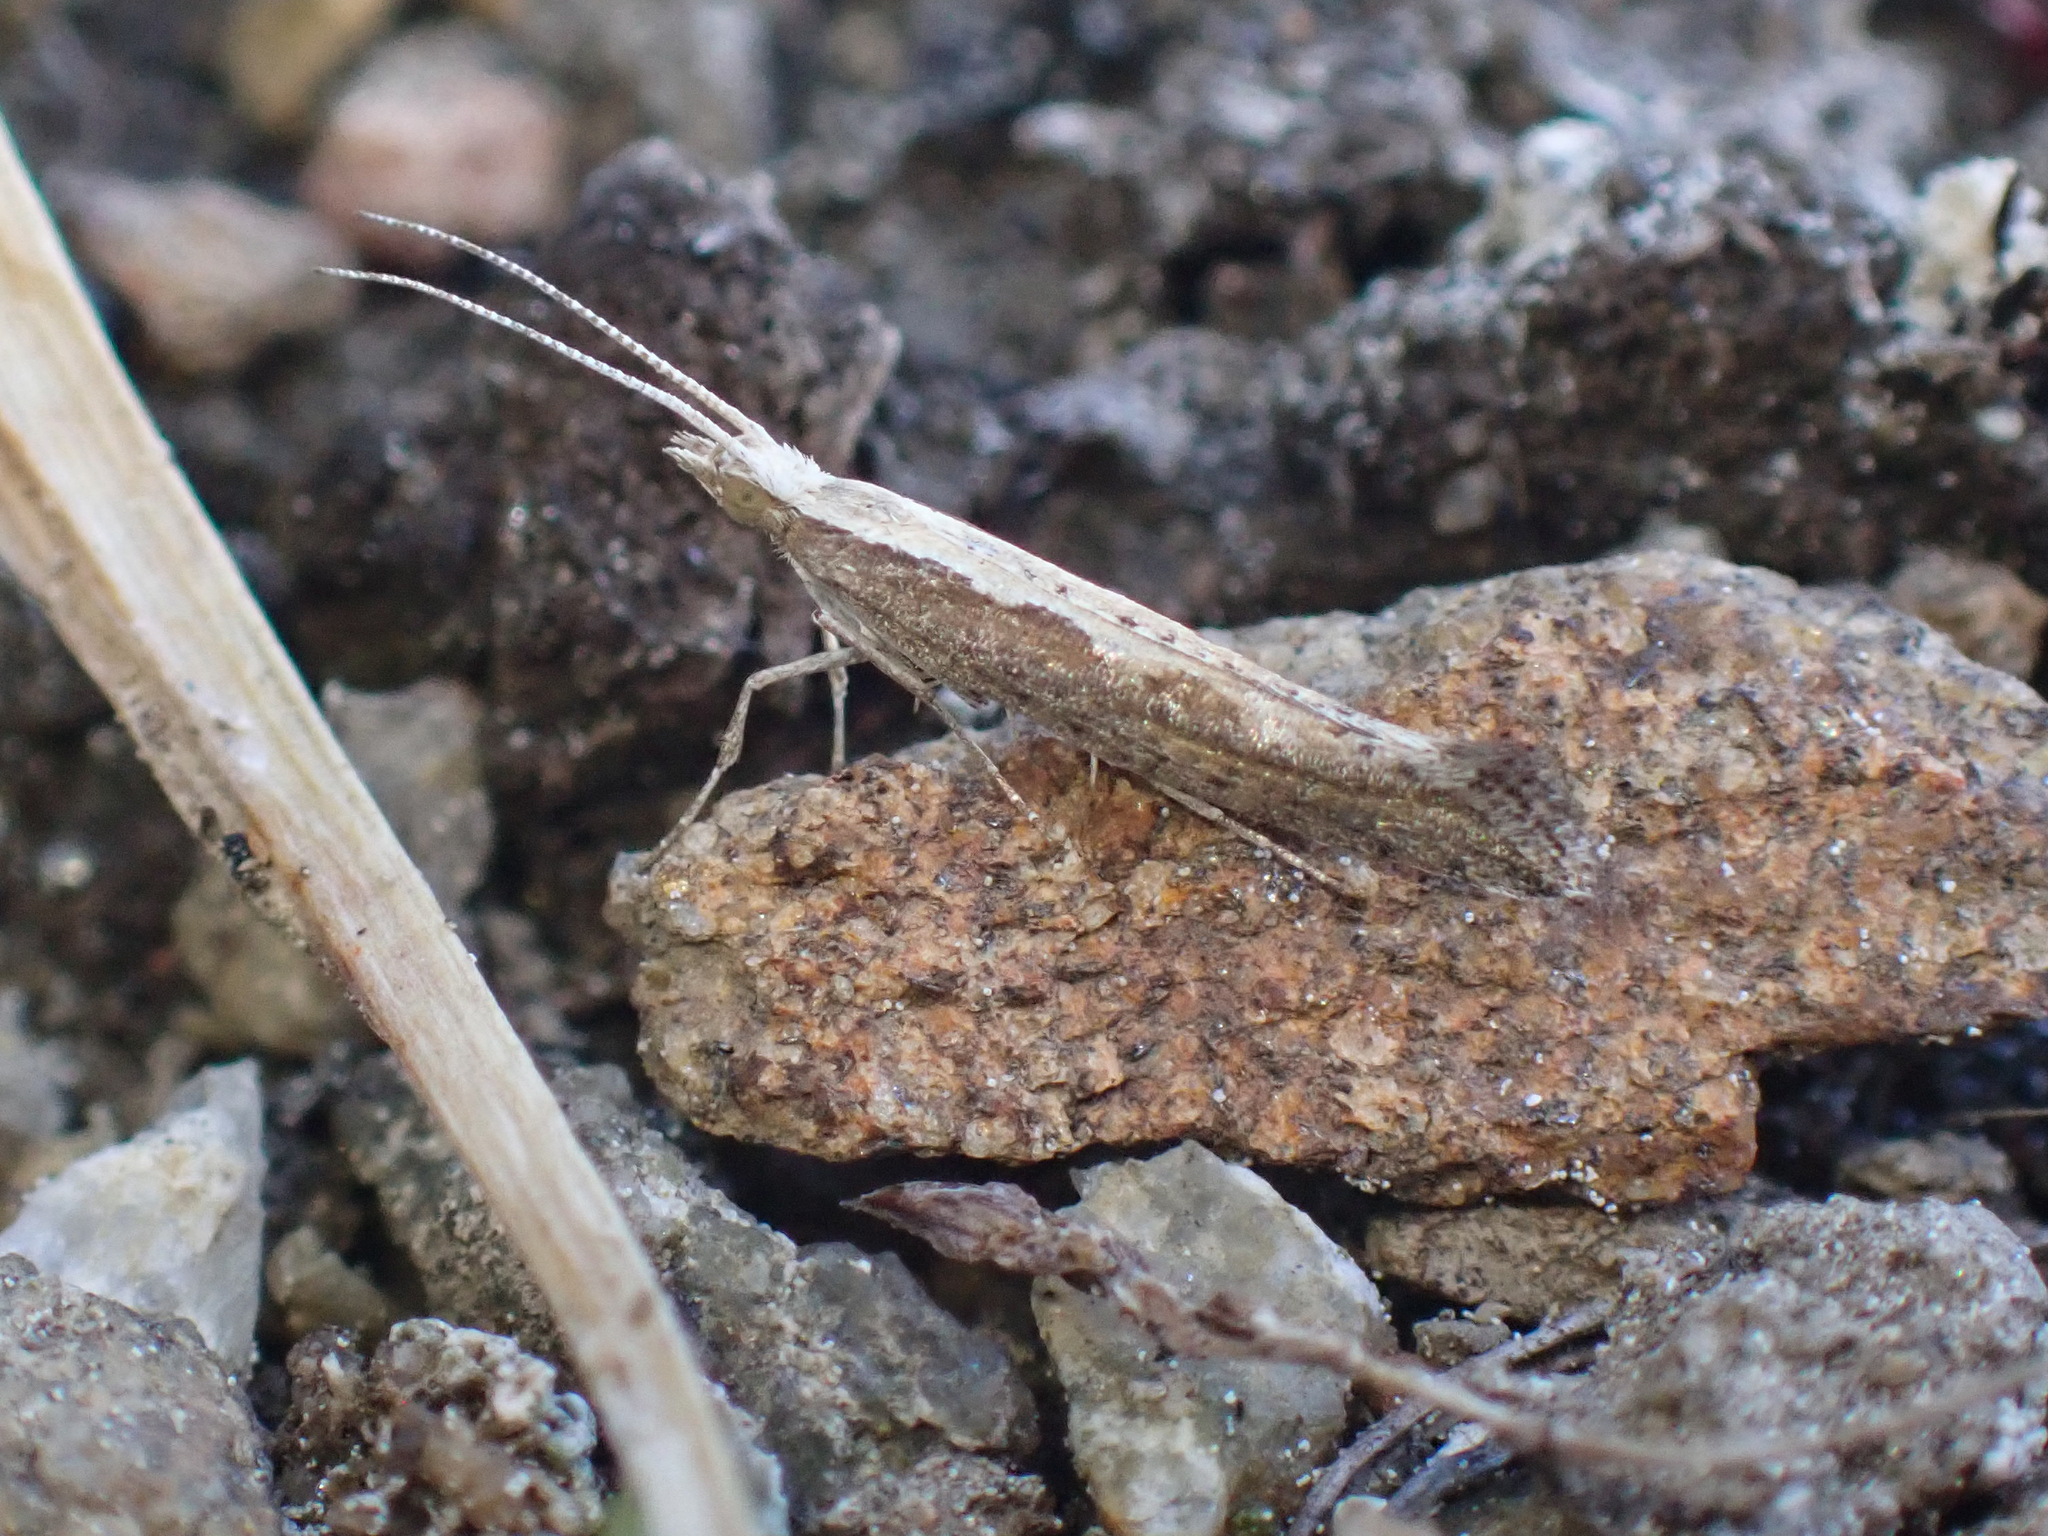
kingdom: Animalia
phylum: Arthropoda
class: Insecta
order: Lepidoptera
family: Plutellidae
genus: Plutella
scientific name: Plutella xylostella
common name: Diamond-back moth
